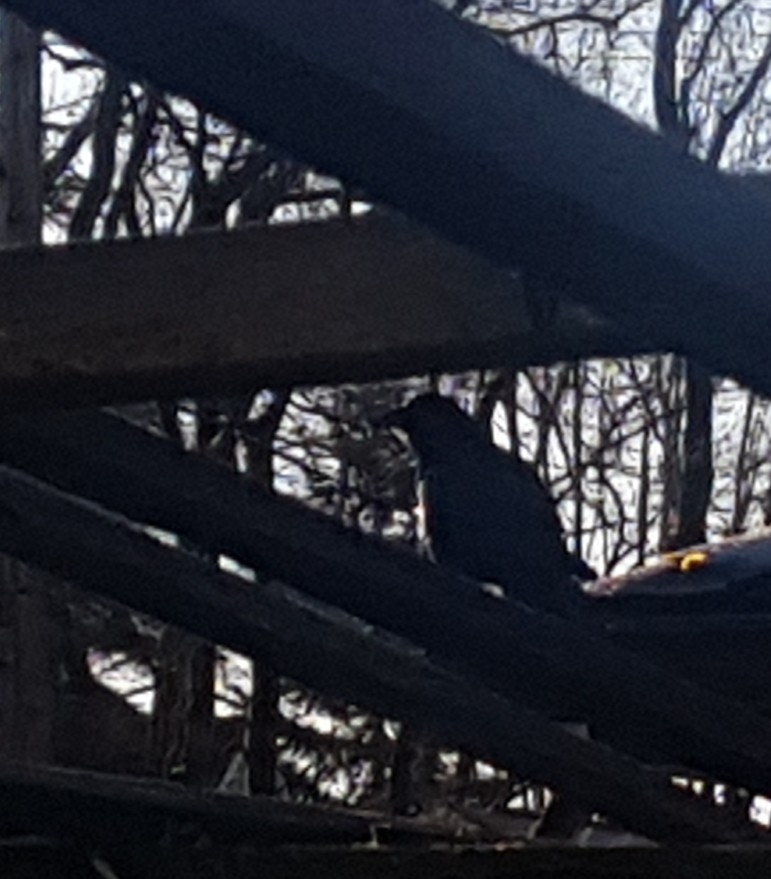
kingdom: Animalia
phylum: Chordata
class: Aves
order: Passeriformes
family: Corvidae
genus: Corvus
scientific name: Corvus brachyrhynchos
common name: American crow
